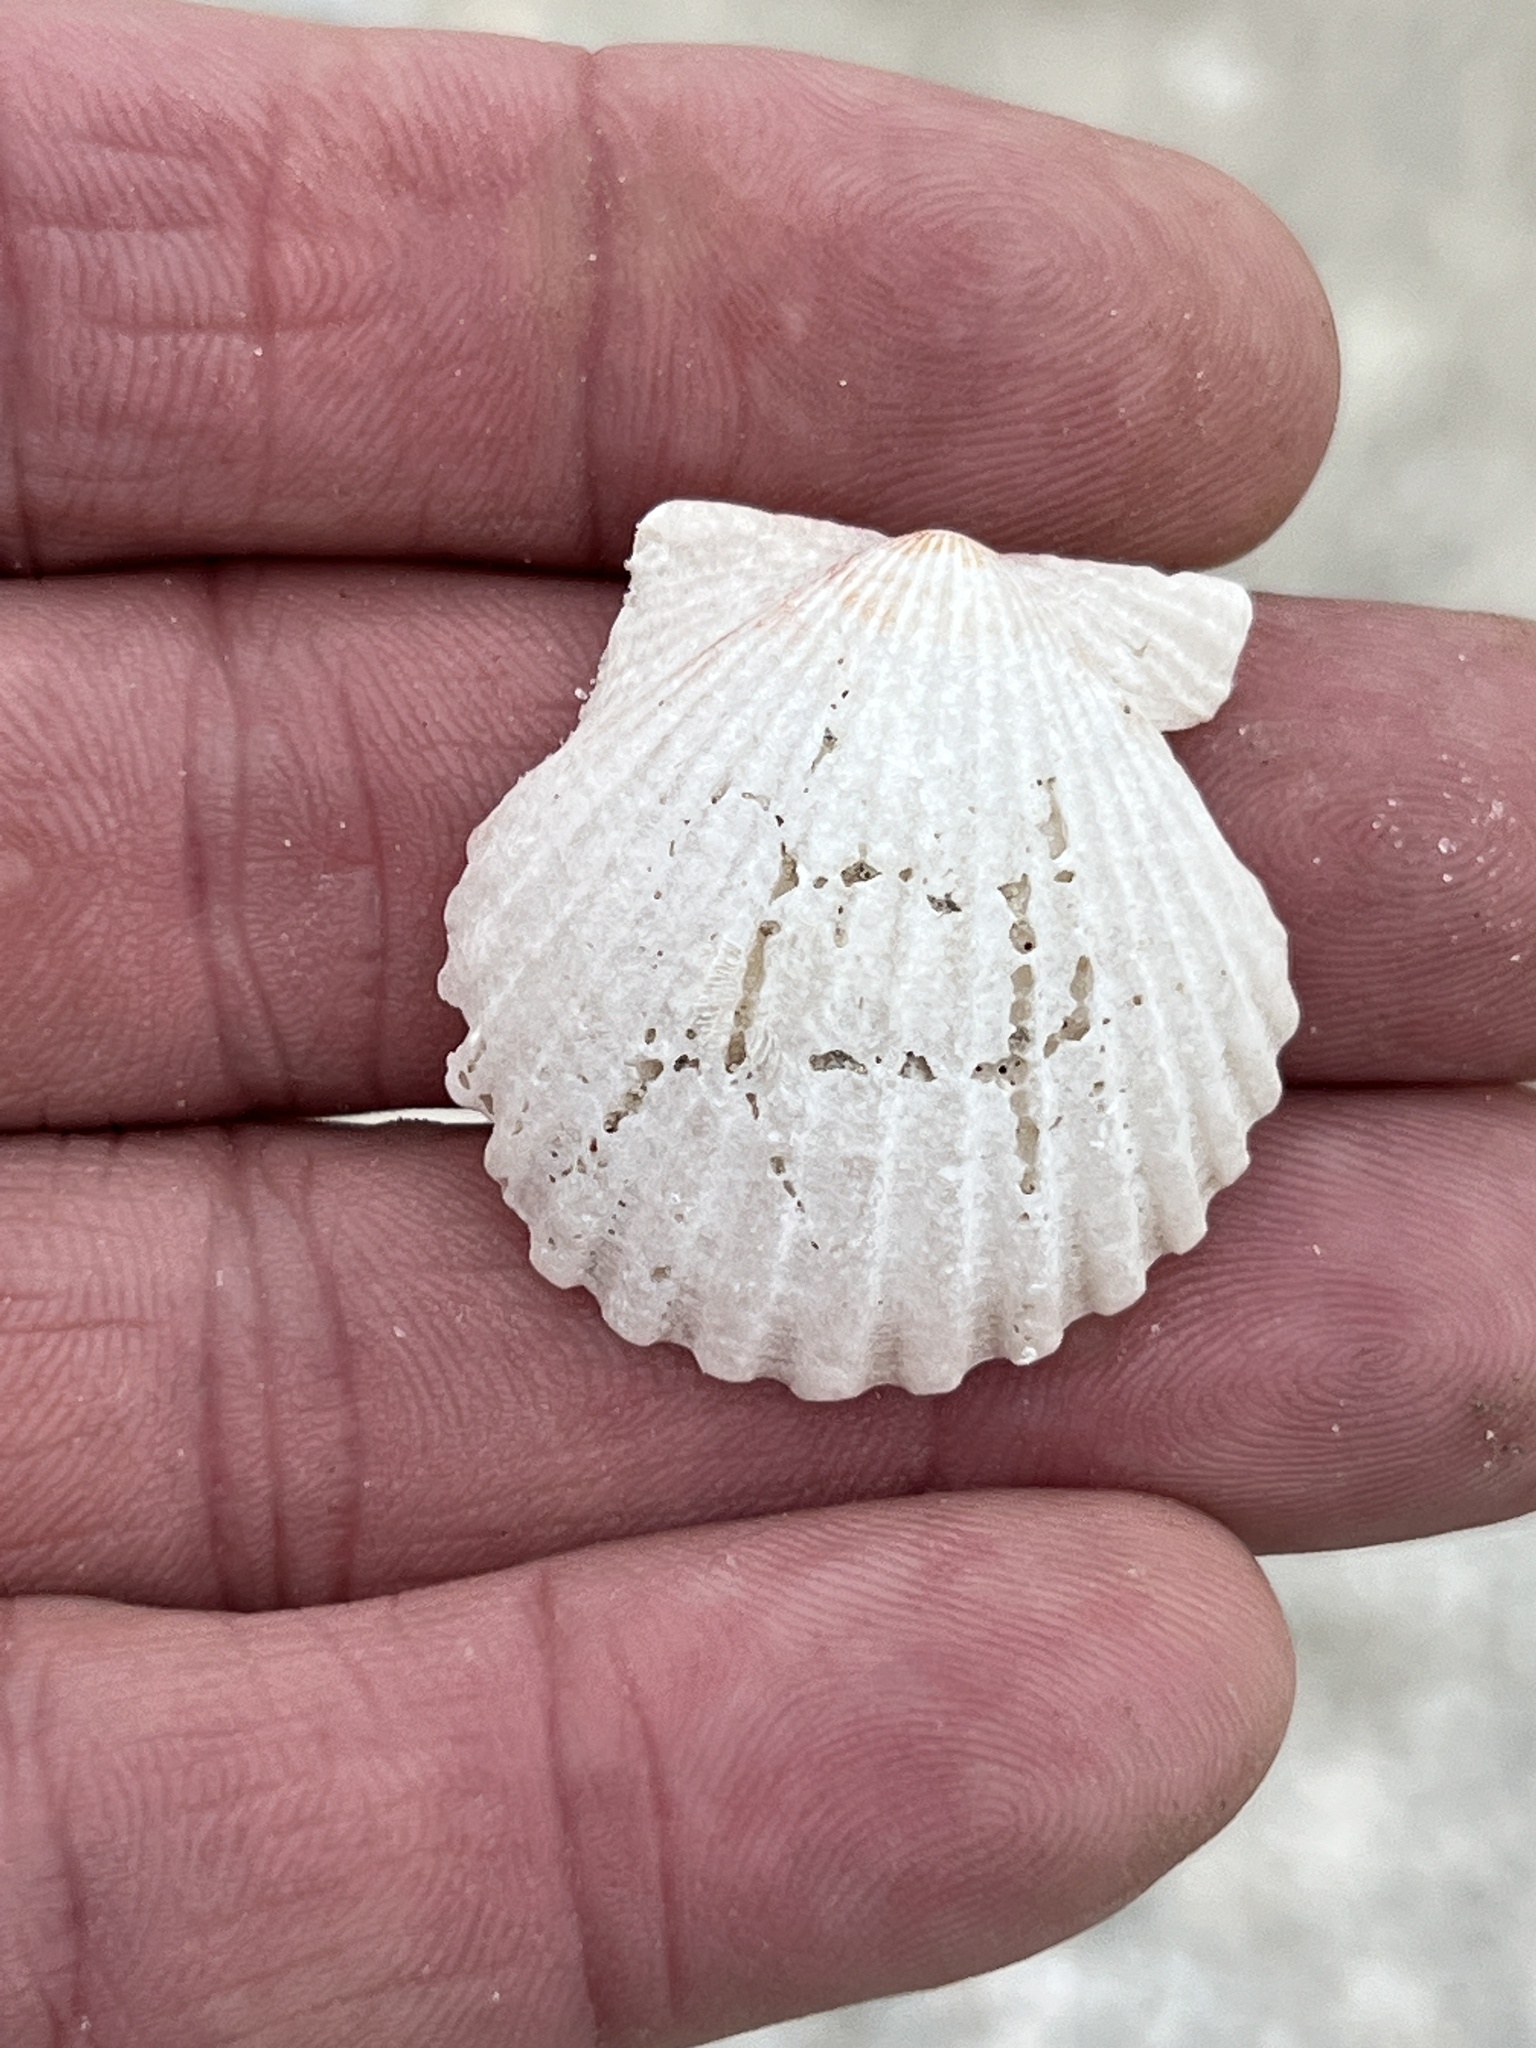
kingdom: Animalia
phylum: Mollusca
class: Bivalvia
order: Pectinida
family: Pectinidae
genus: Argopecten
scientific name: Argopecten irradians
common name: Atlantic bay scallop
